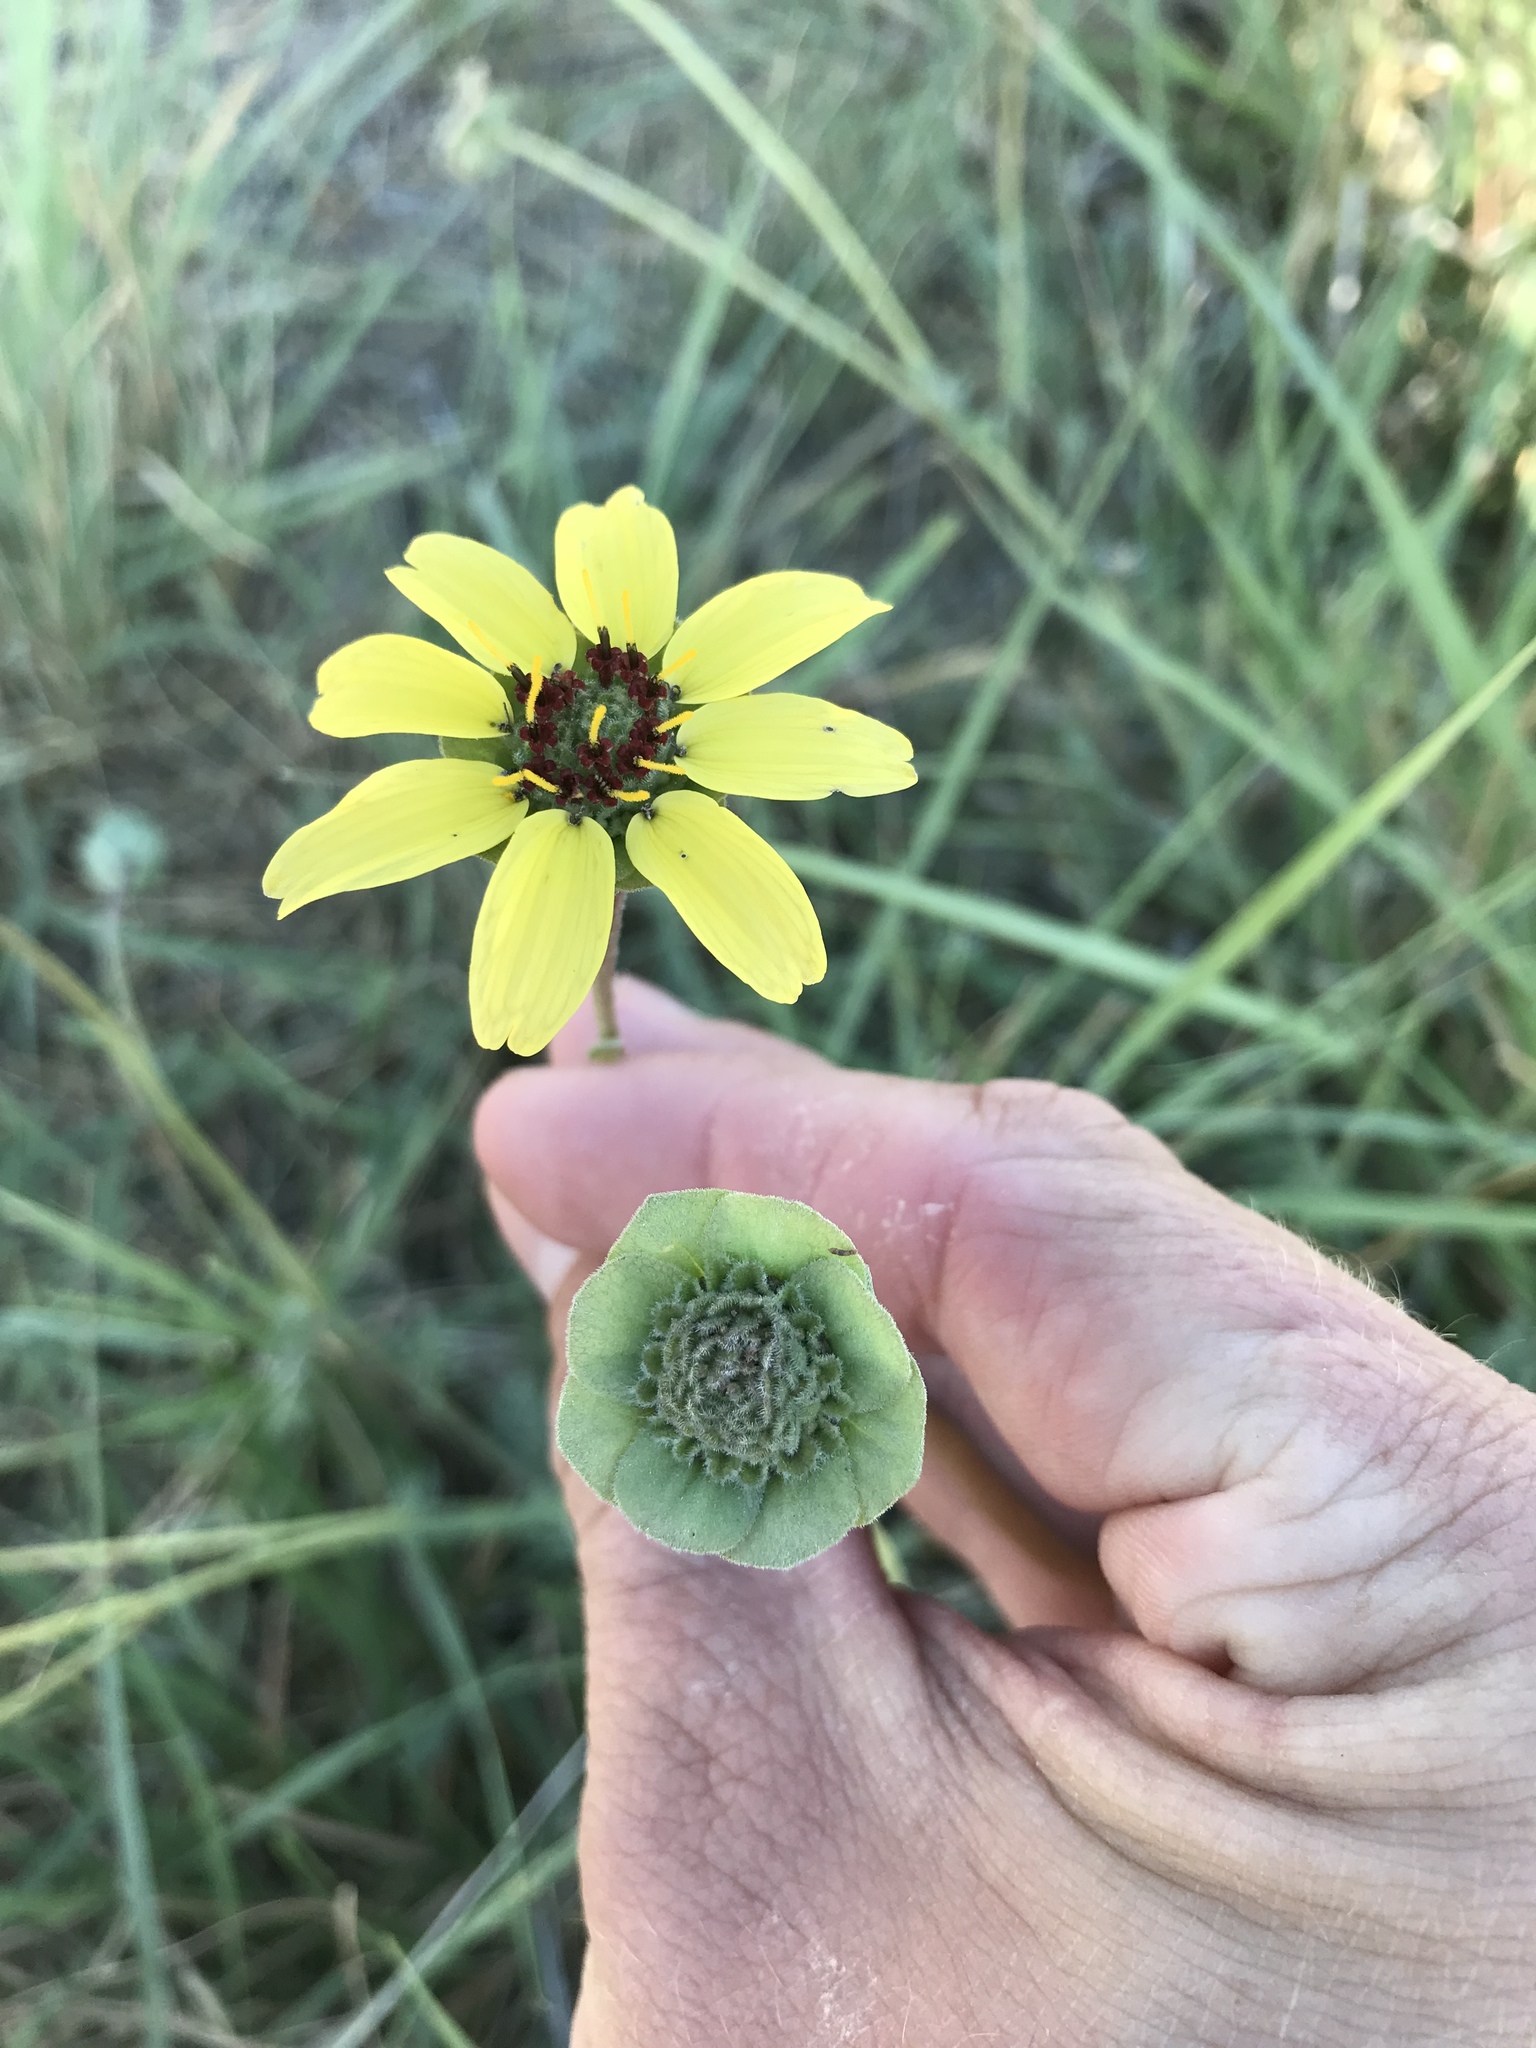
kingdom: Plantae
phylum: Tracheophyta
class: Magnoliopsida
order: Asterales
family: Asteraceae
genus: Berlandiera
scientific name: Berlandiera lyrata
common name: Chocolate-flower
